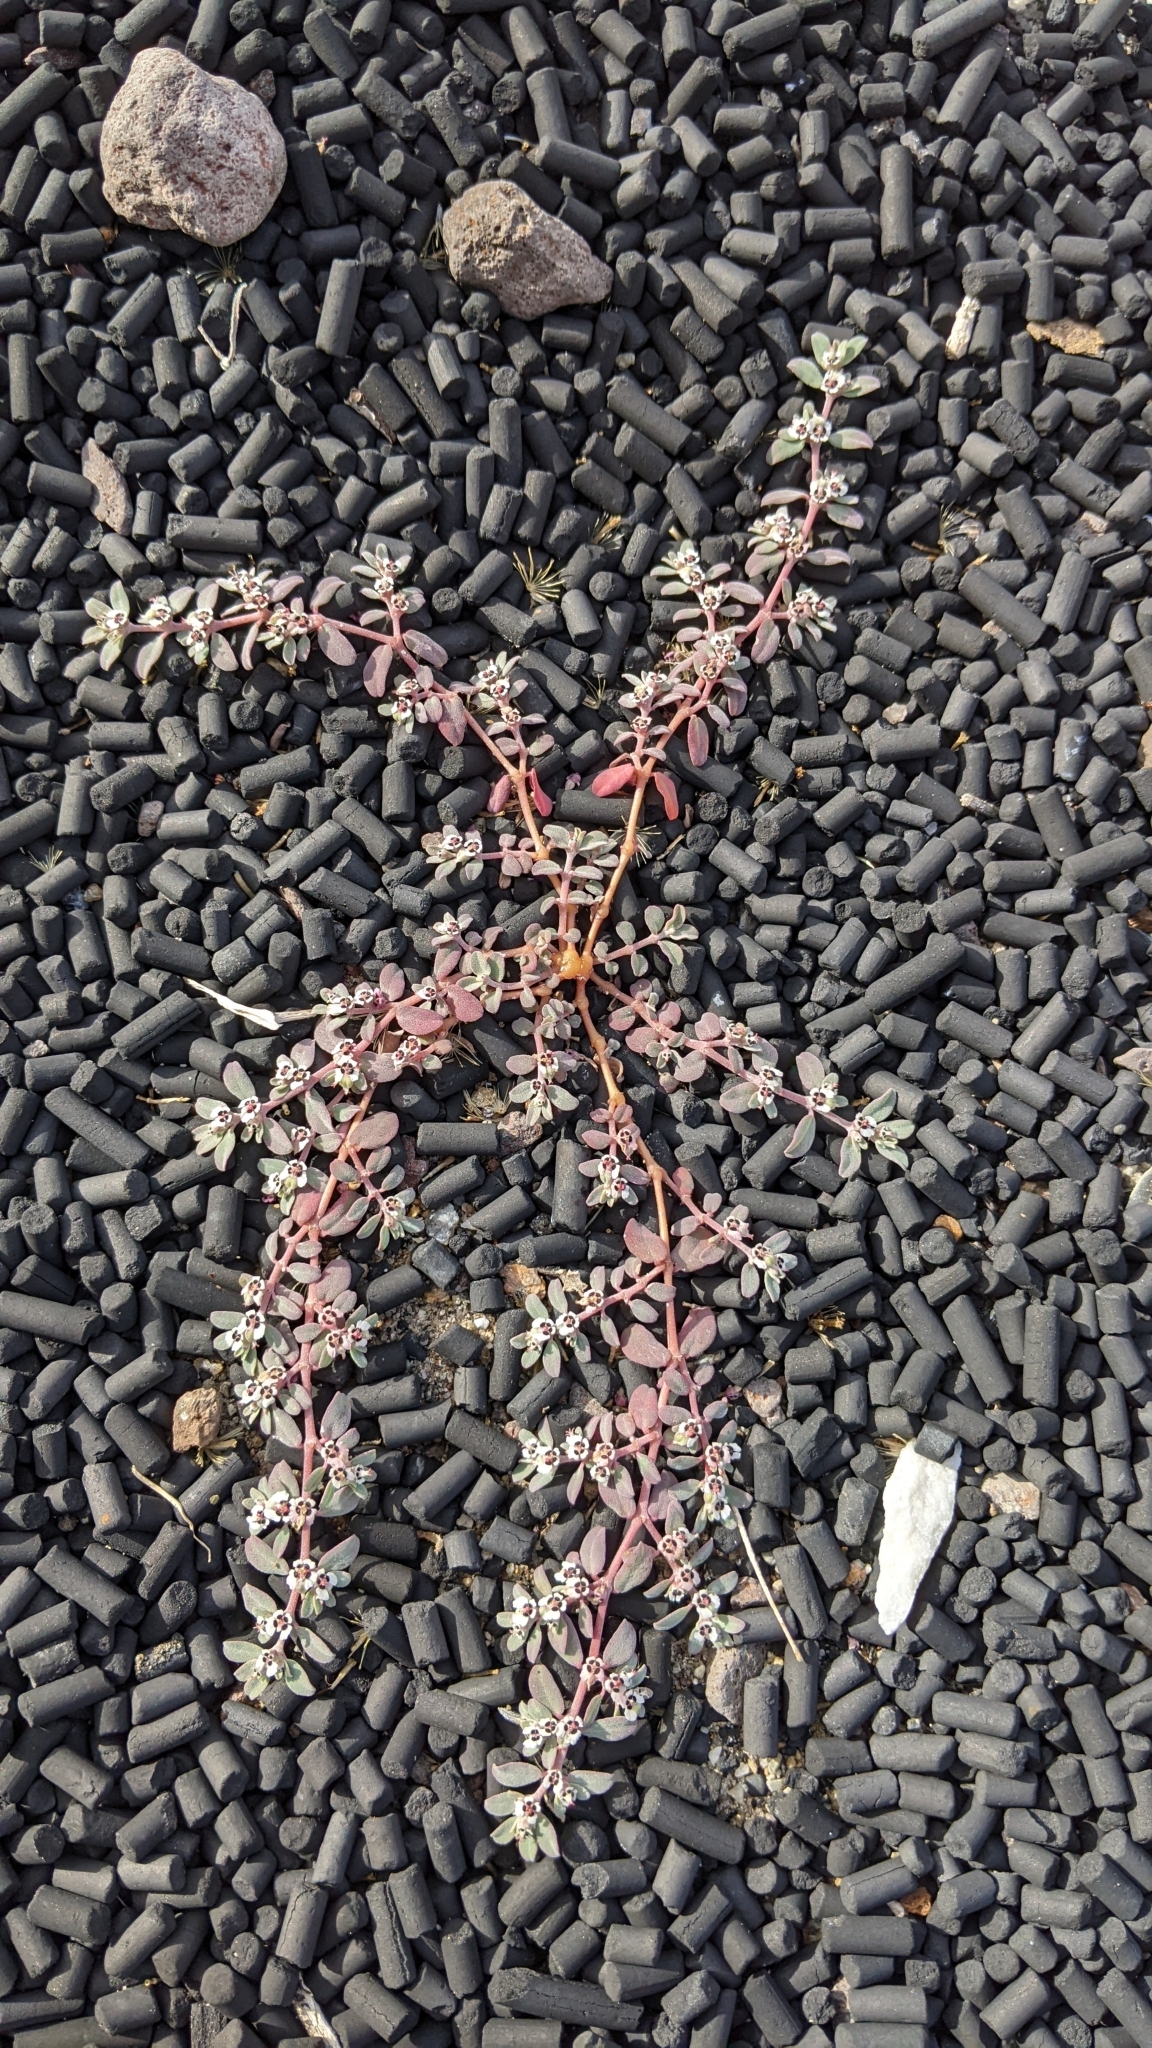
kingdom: Plantae
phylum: Tracheophyta
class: Magnoliopsida
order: Malpighiales
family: Euphorbiaceae
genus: Euphorbia
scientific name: Euphorbia pediculifera
